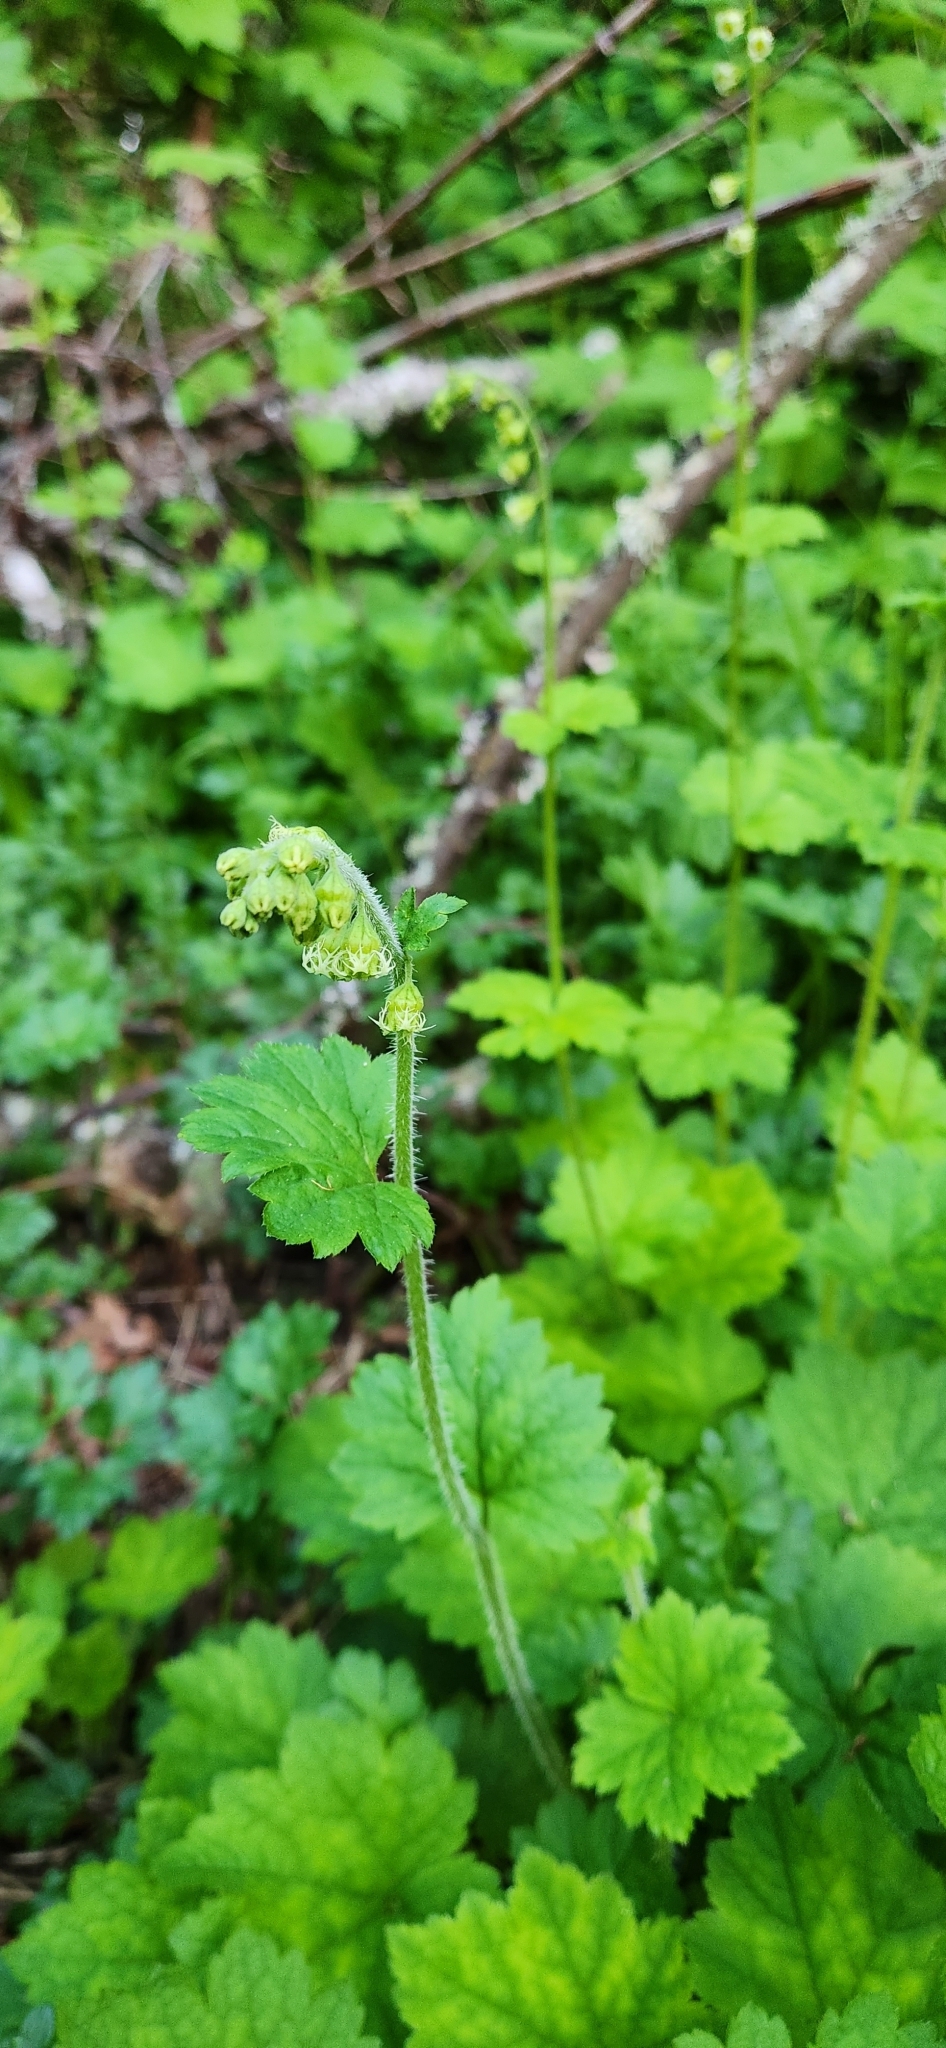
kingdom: Plantae
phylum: Tracheophyta
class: Magnoliopsida
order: Saxifragales
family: Saxifragaceae
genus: Tellima
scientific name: Tellima grandiflora
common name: Fringecups
